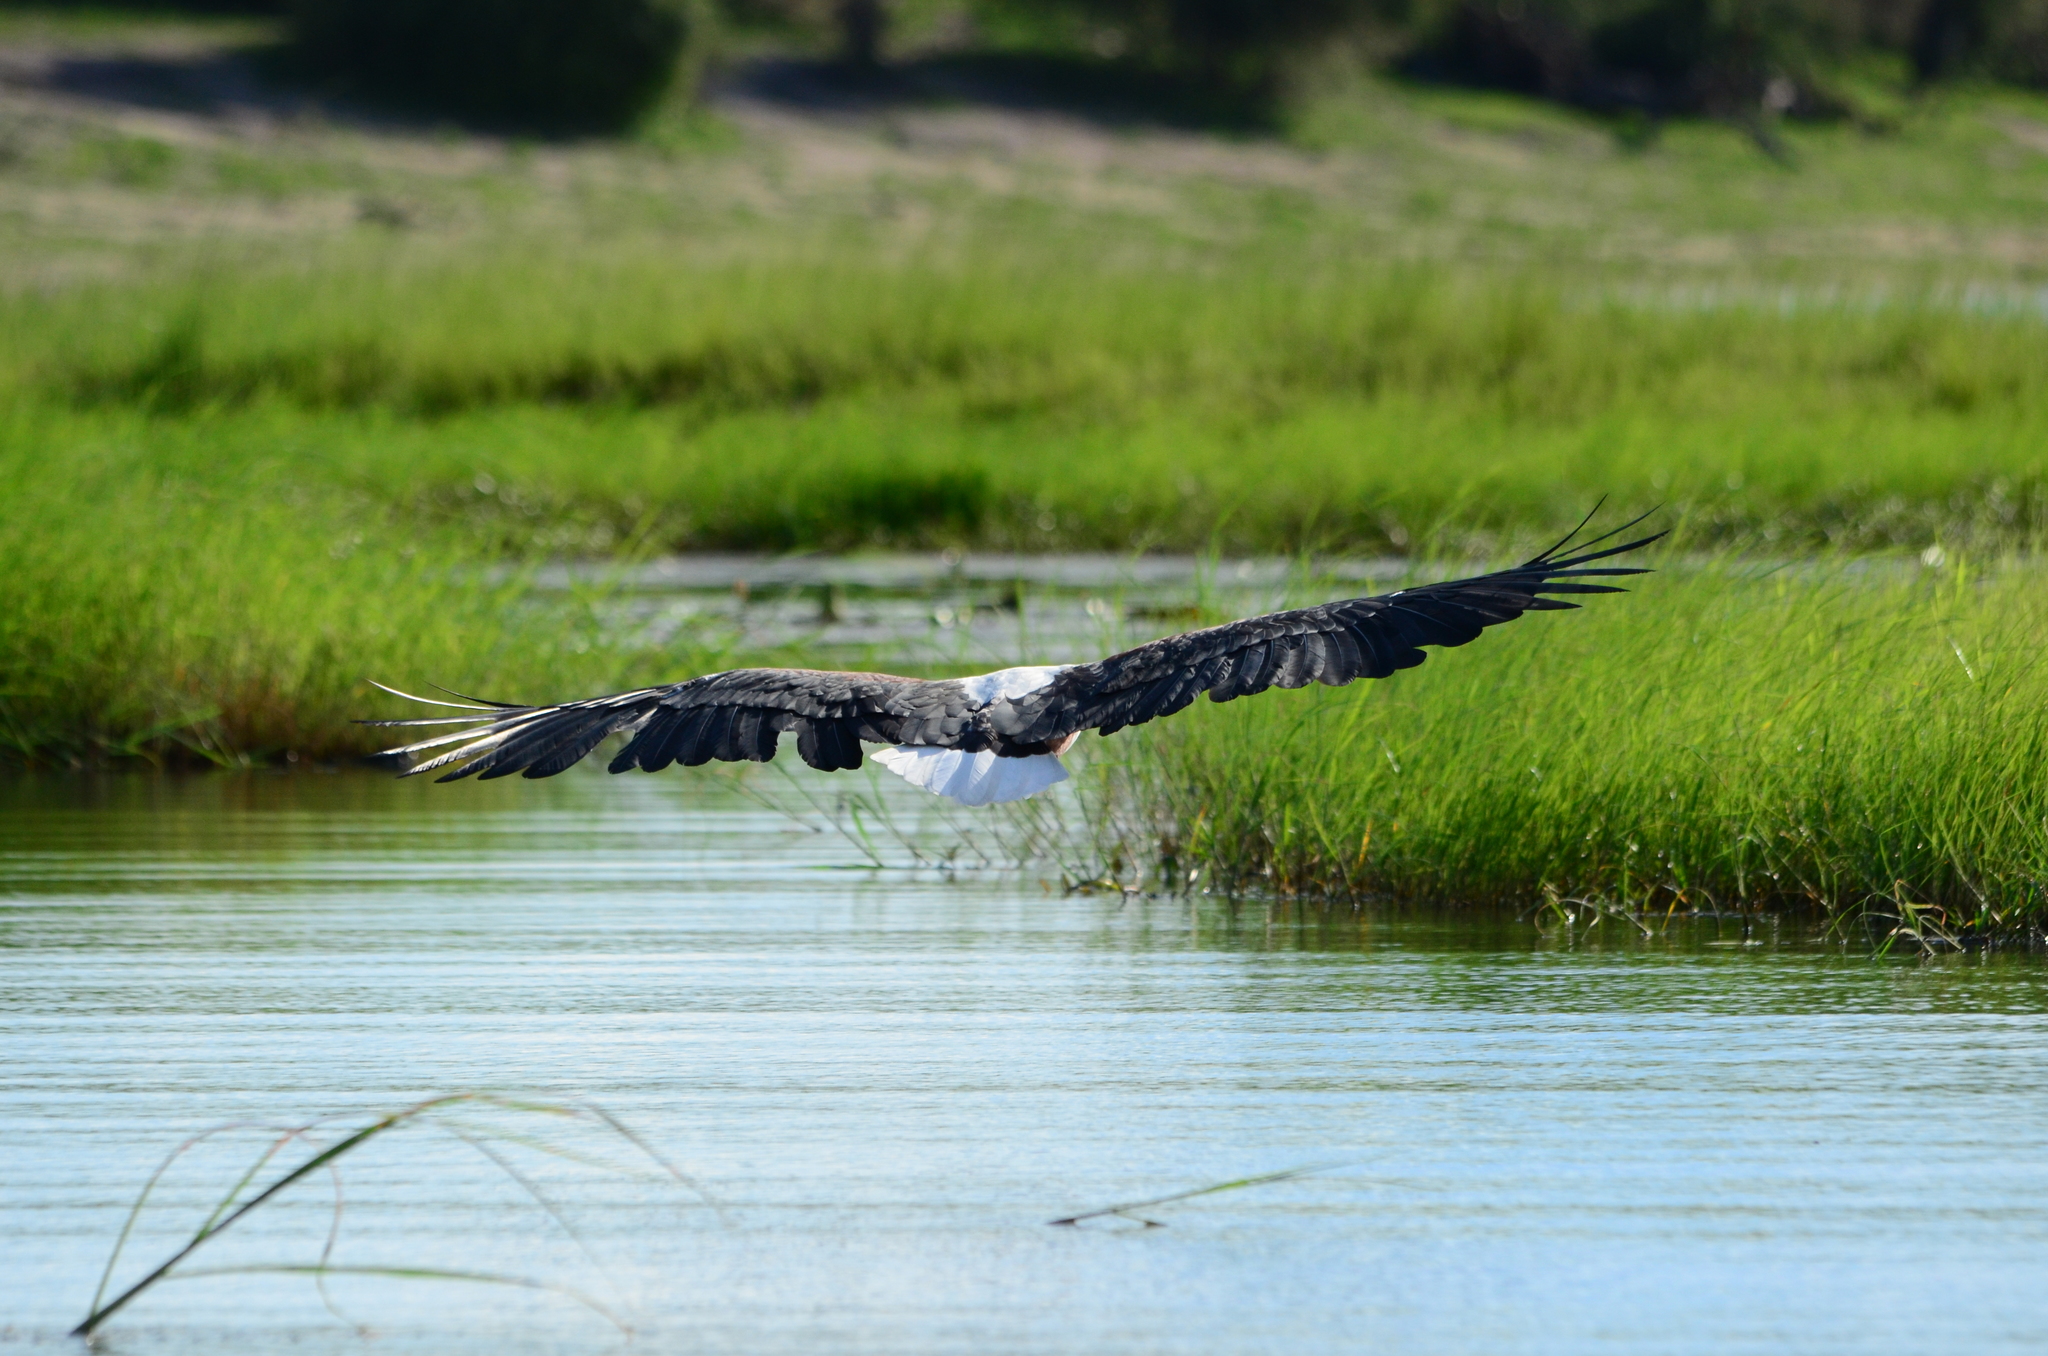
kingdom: Animalia
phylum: Chordata
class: Aves
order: Accipitriformes
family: Accipitridae
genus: Haliaeetus
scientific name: Haliaeetus vocifer
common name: African fish eagle
